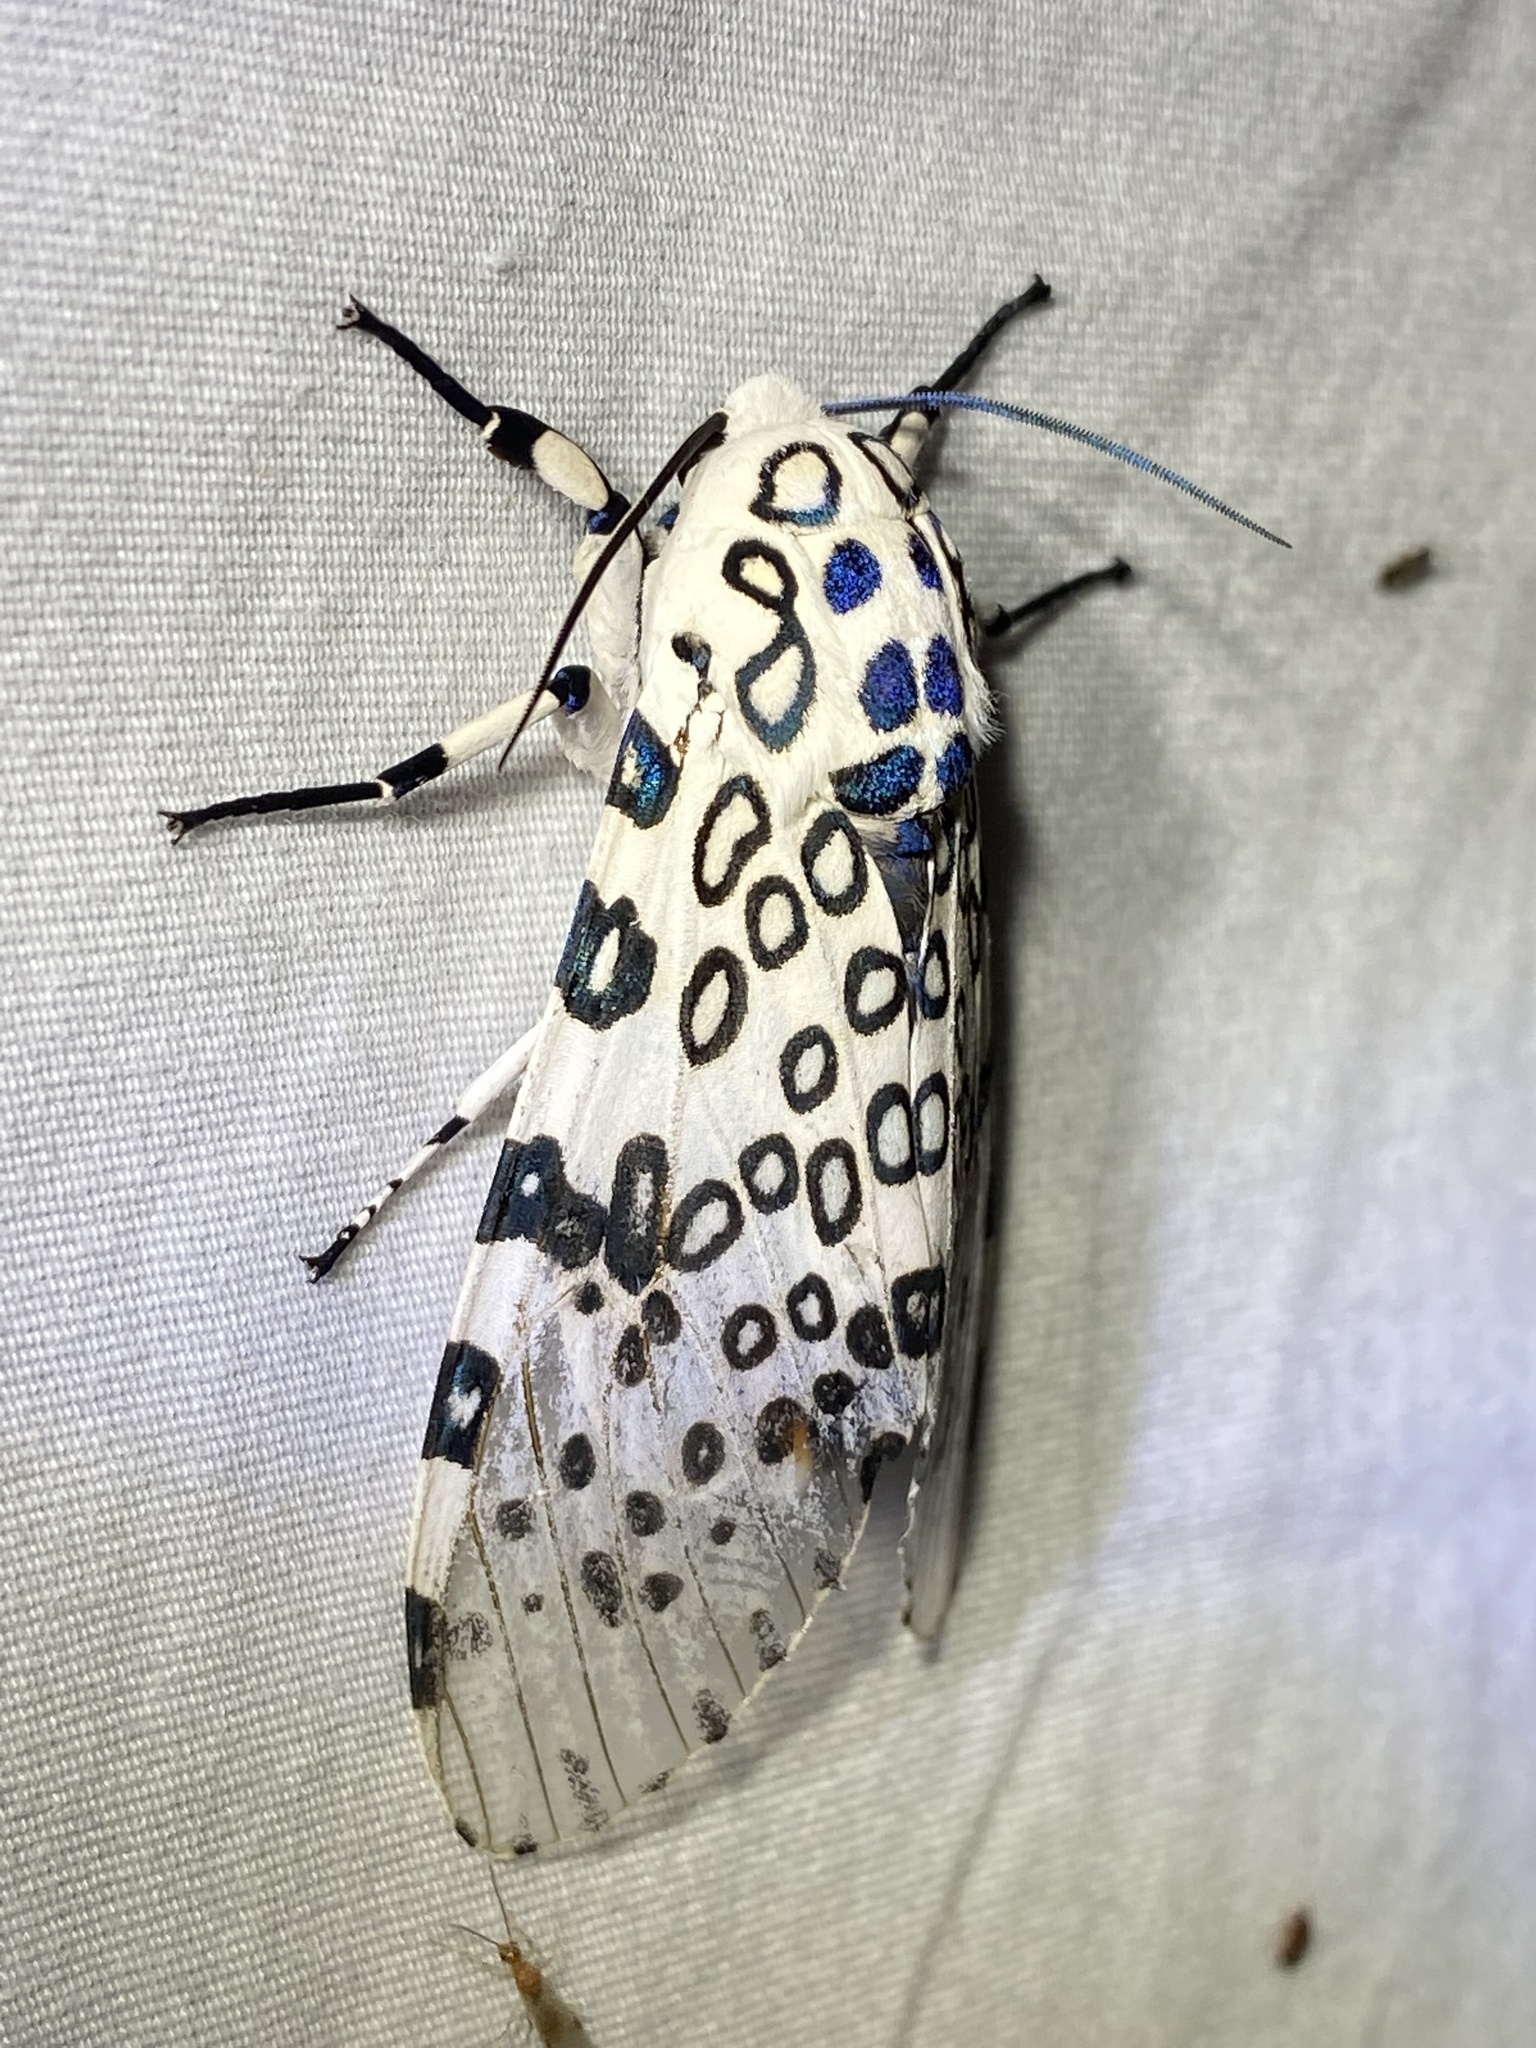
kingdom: Animalia
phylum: Arthropoda
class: Insecta
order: Lepidoptera
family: Erebidae
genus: Hypercompe
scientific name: Hypercompe scribonia
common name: Giant leopard moth
